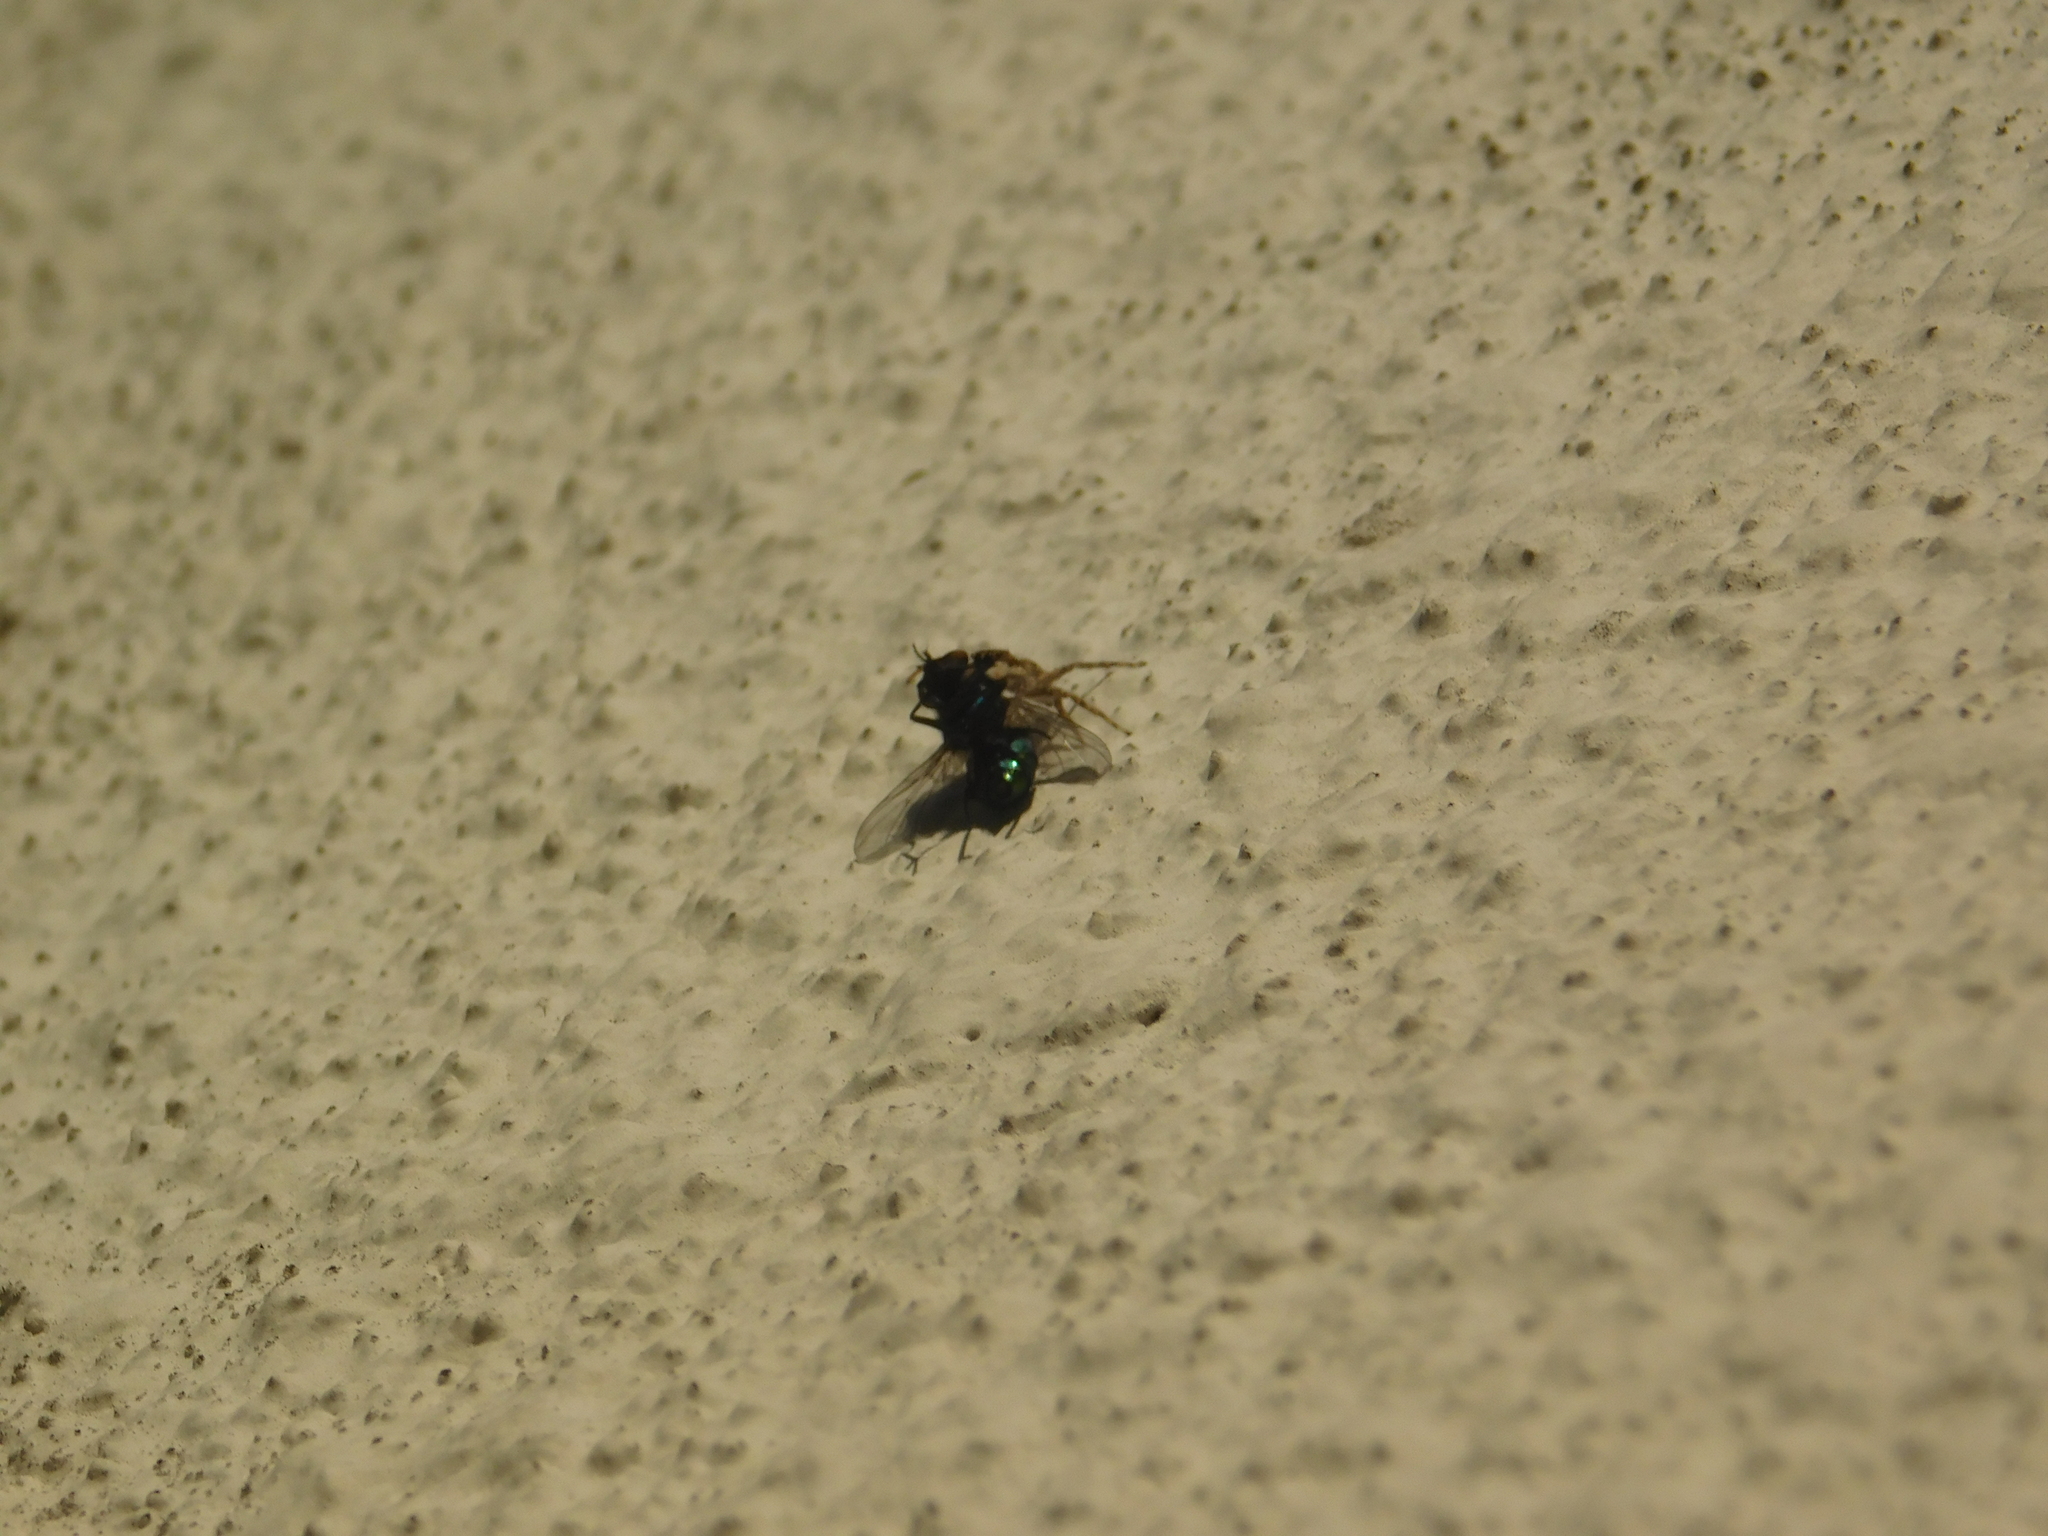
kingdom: Animalia
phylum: Arthropoda
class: Arachnida
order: Araneae
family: Salticidae
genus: Menemerus
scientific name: Menemerus semilimbatus
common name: Jumping spider
